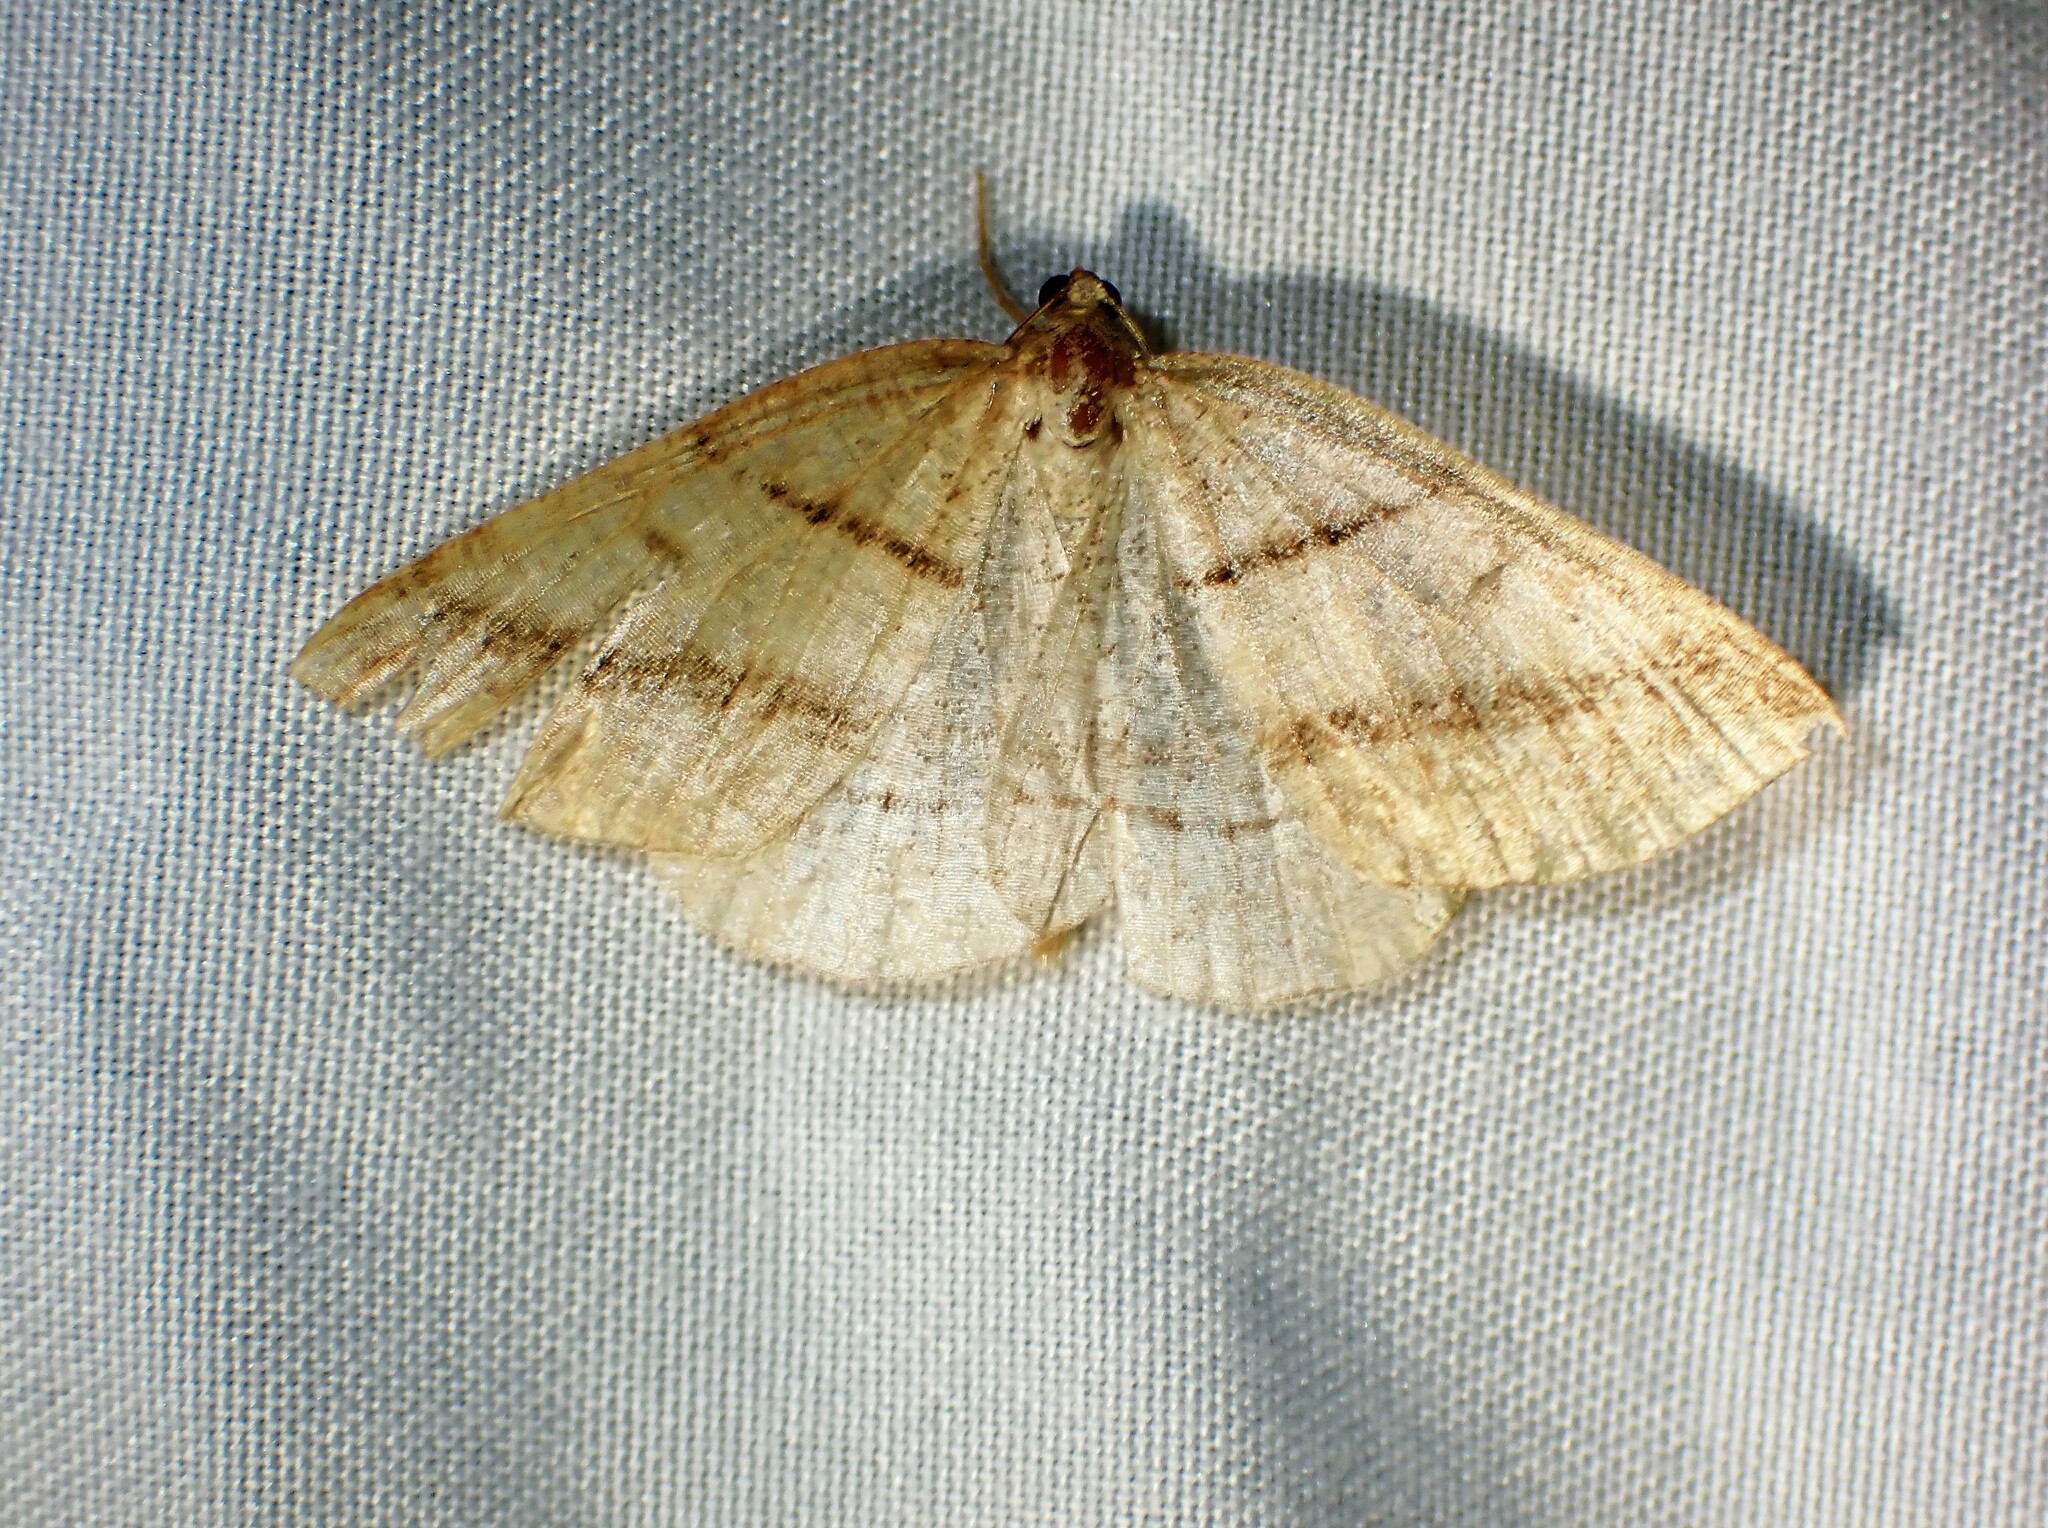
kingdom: Animalia
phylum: Arthropoda
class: Insecta
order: Lepidoptera
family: Pterophoridae
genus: Pterophorus
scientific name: Pterophorus Petrophora subaequaria
